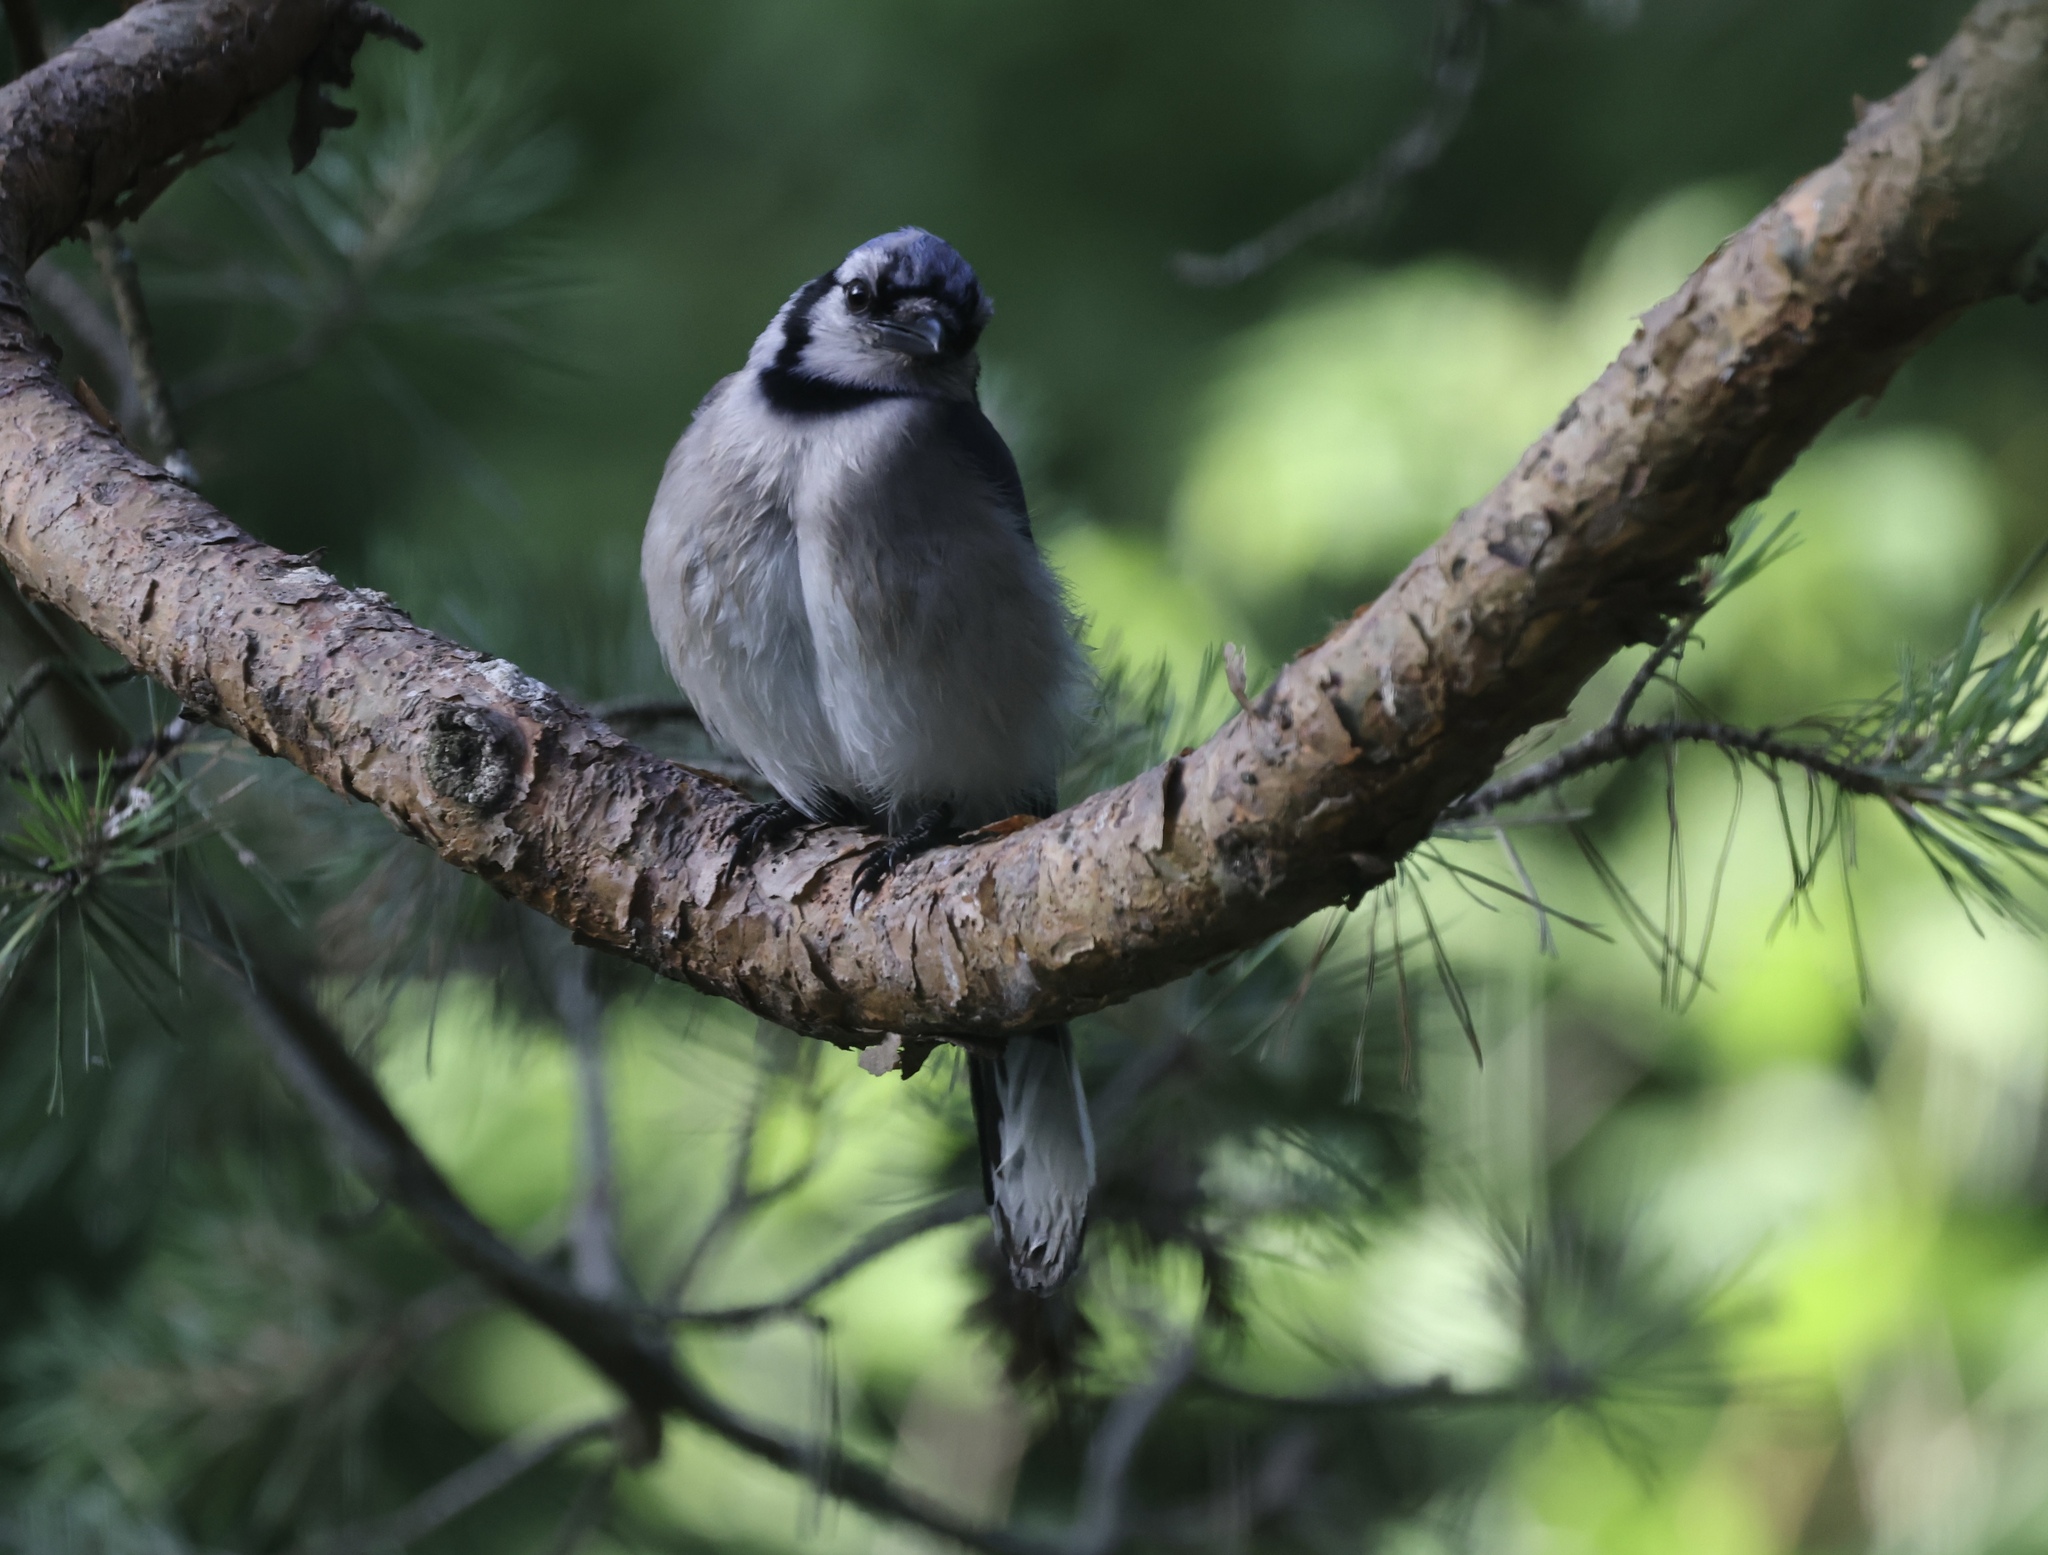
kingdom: Animalia
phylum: Chordata
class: Aves
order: Passeriformes
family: Corvidae
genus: Cyanocitta
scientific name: Cyanocitta cristata
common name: Blue jay
